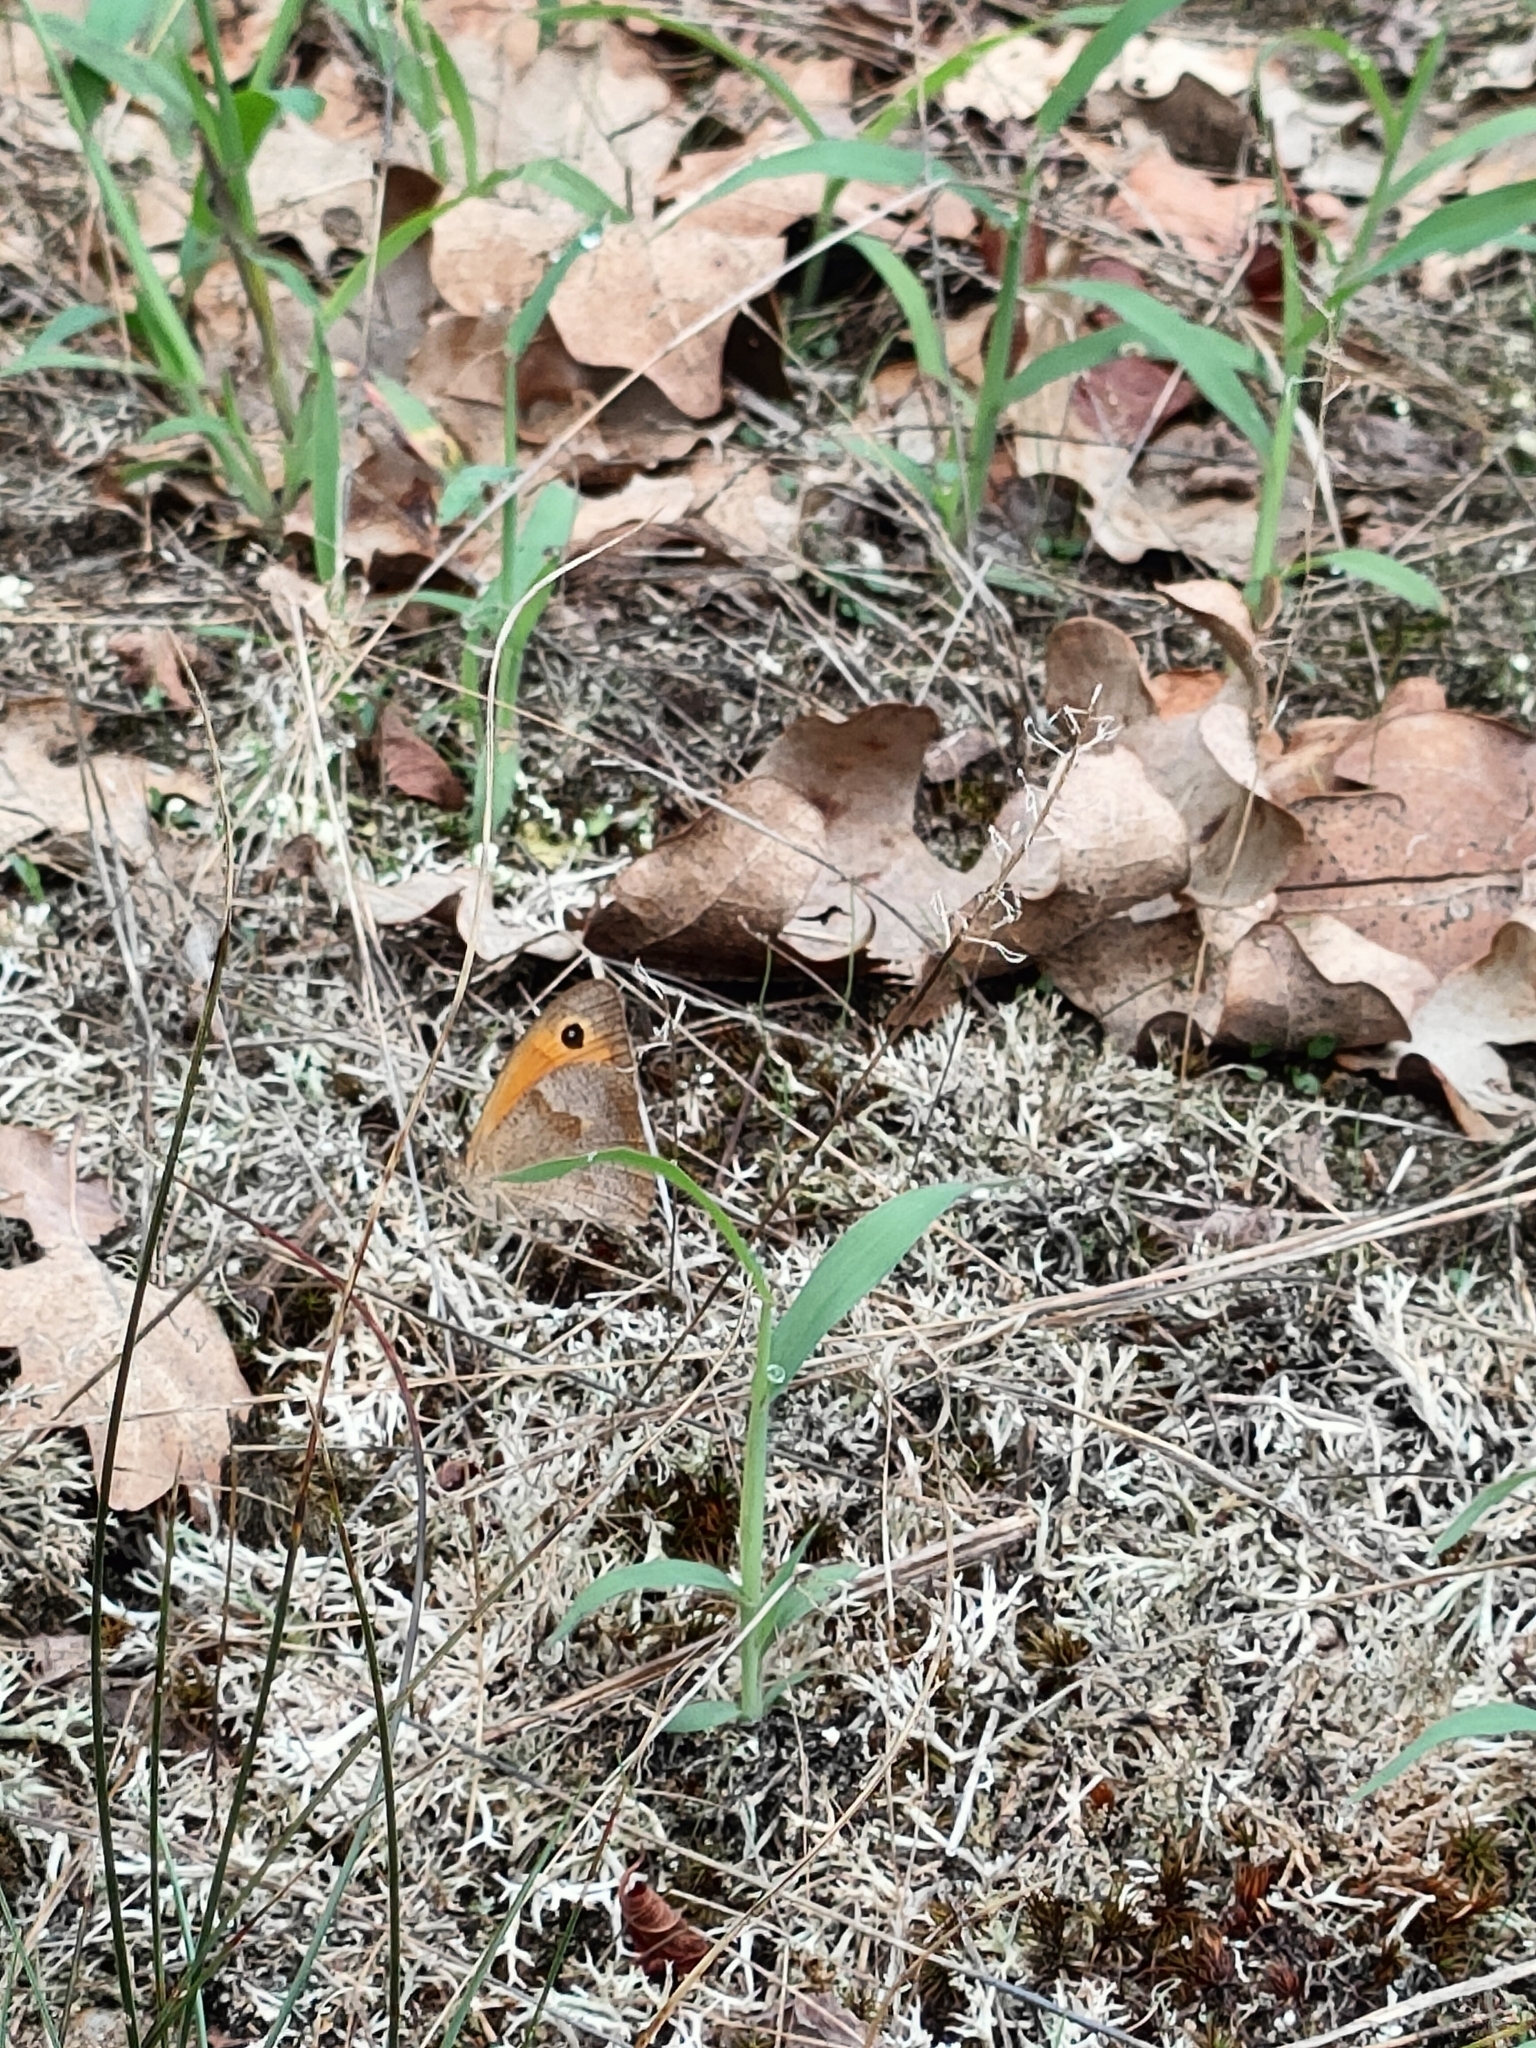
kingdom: Animalia
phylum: Arthropoda
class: Insecta
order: Lepidoptera
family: Nymphalidae
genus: Maniola
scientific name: Maniola jurtina
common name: Meadow brown
